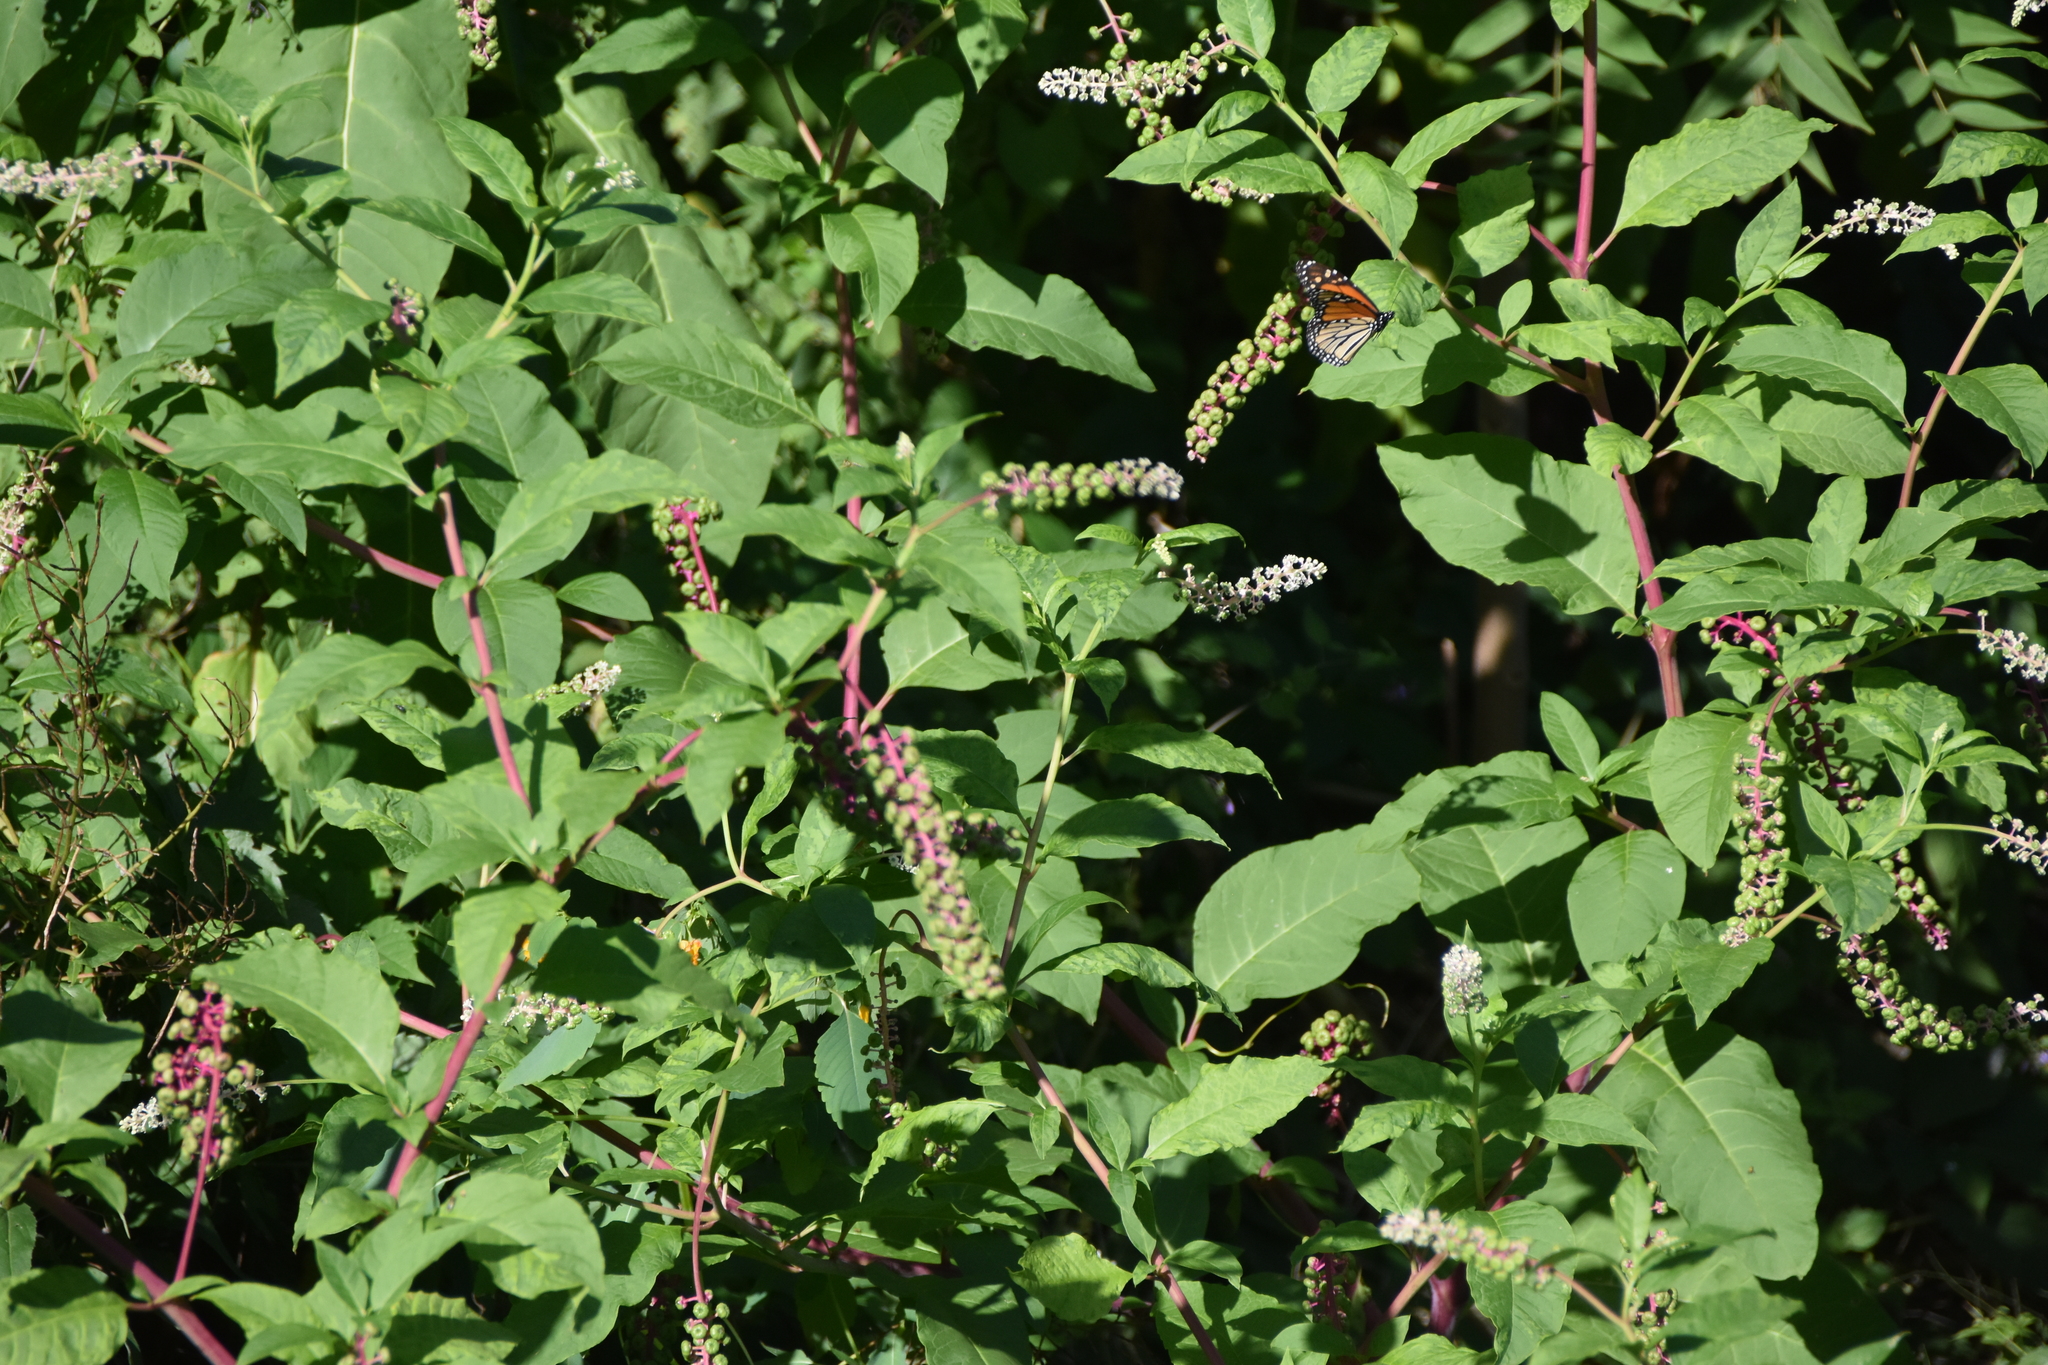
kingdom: Animalia
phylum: Arthropoda
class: Insecta
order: Lepidoptera
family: Nymphalidae
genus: Danaus
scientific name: Danaus plexippus
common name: Monarch
